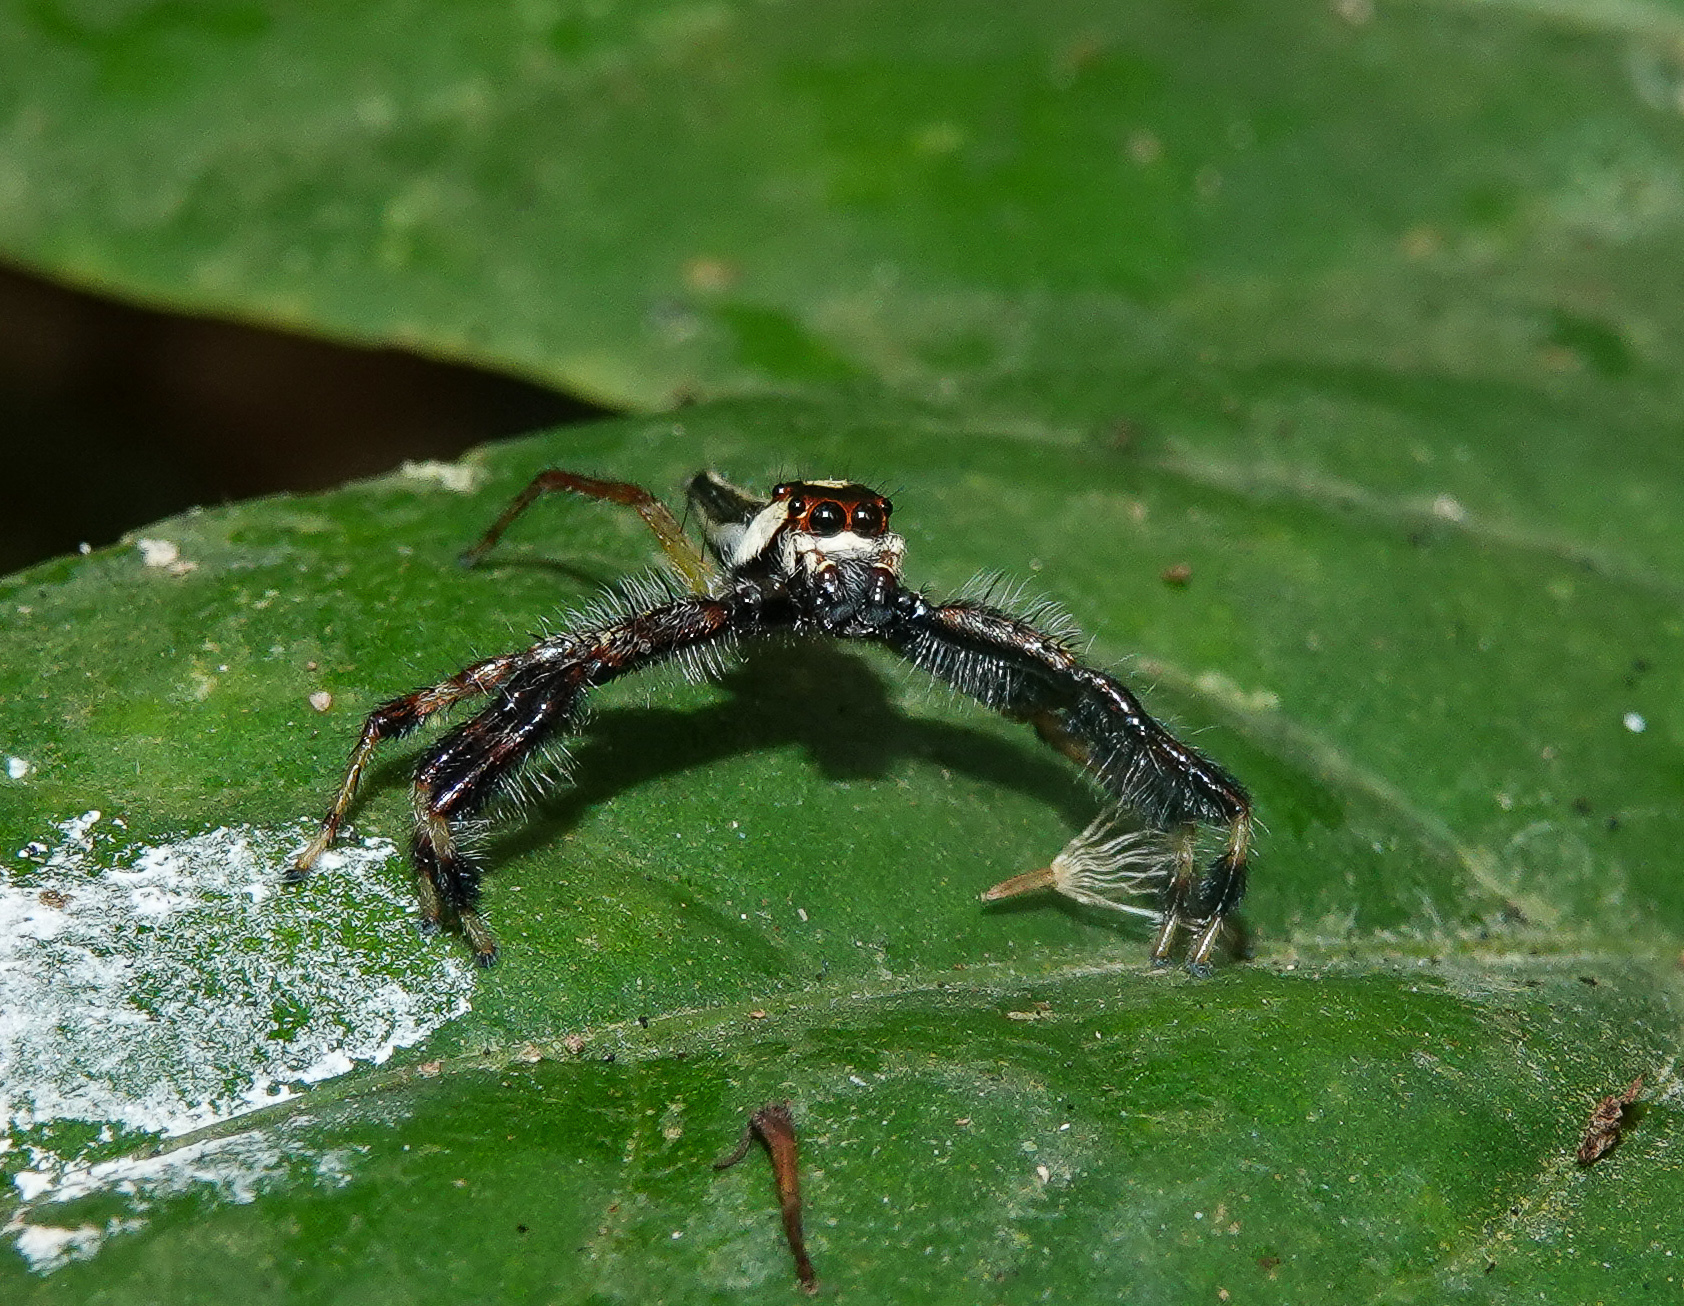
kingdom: Animalia
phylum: Arthropoda
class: Arachnida
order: Araneae
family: Salticidae
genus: Telamonia
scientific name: Telamonia dimidiata
